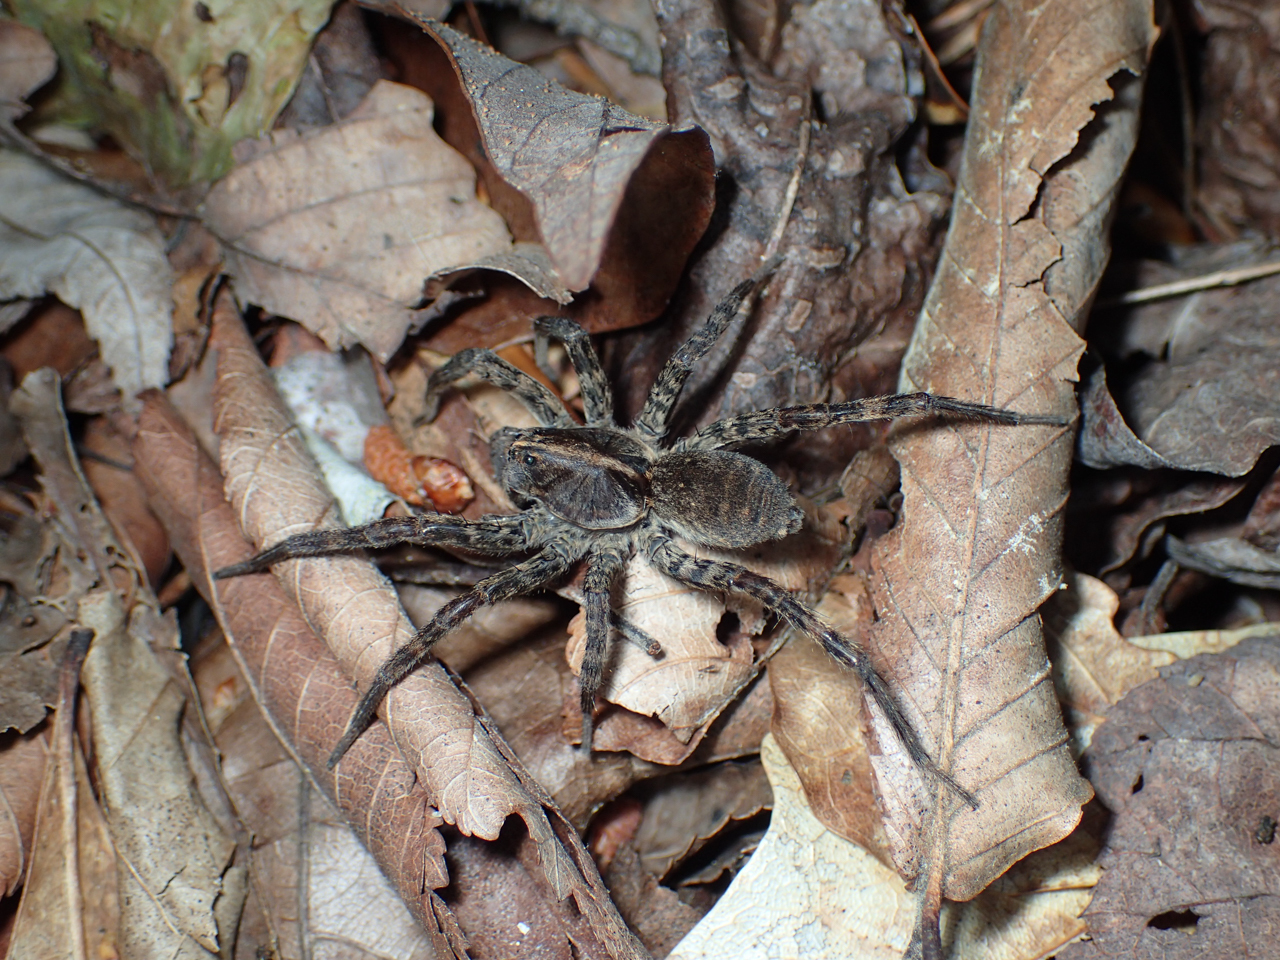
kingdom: Animalia
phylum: Arthropoda
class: Arachnida
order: Araneae
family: Lycosidae
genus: Tigrosa
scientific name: Tigrosa georgicola
